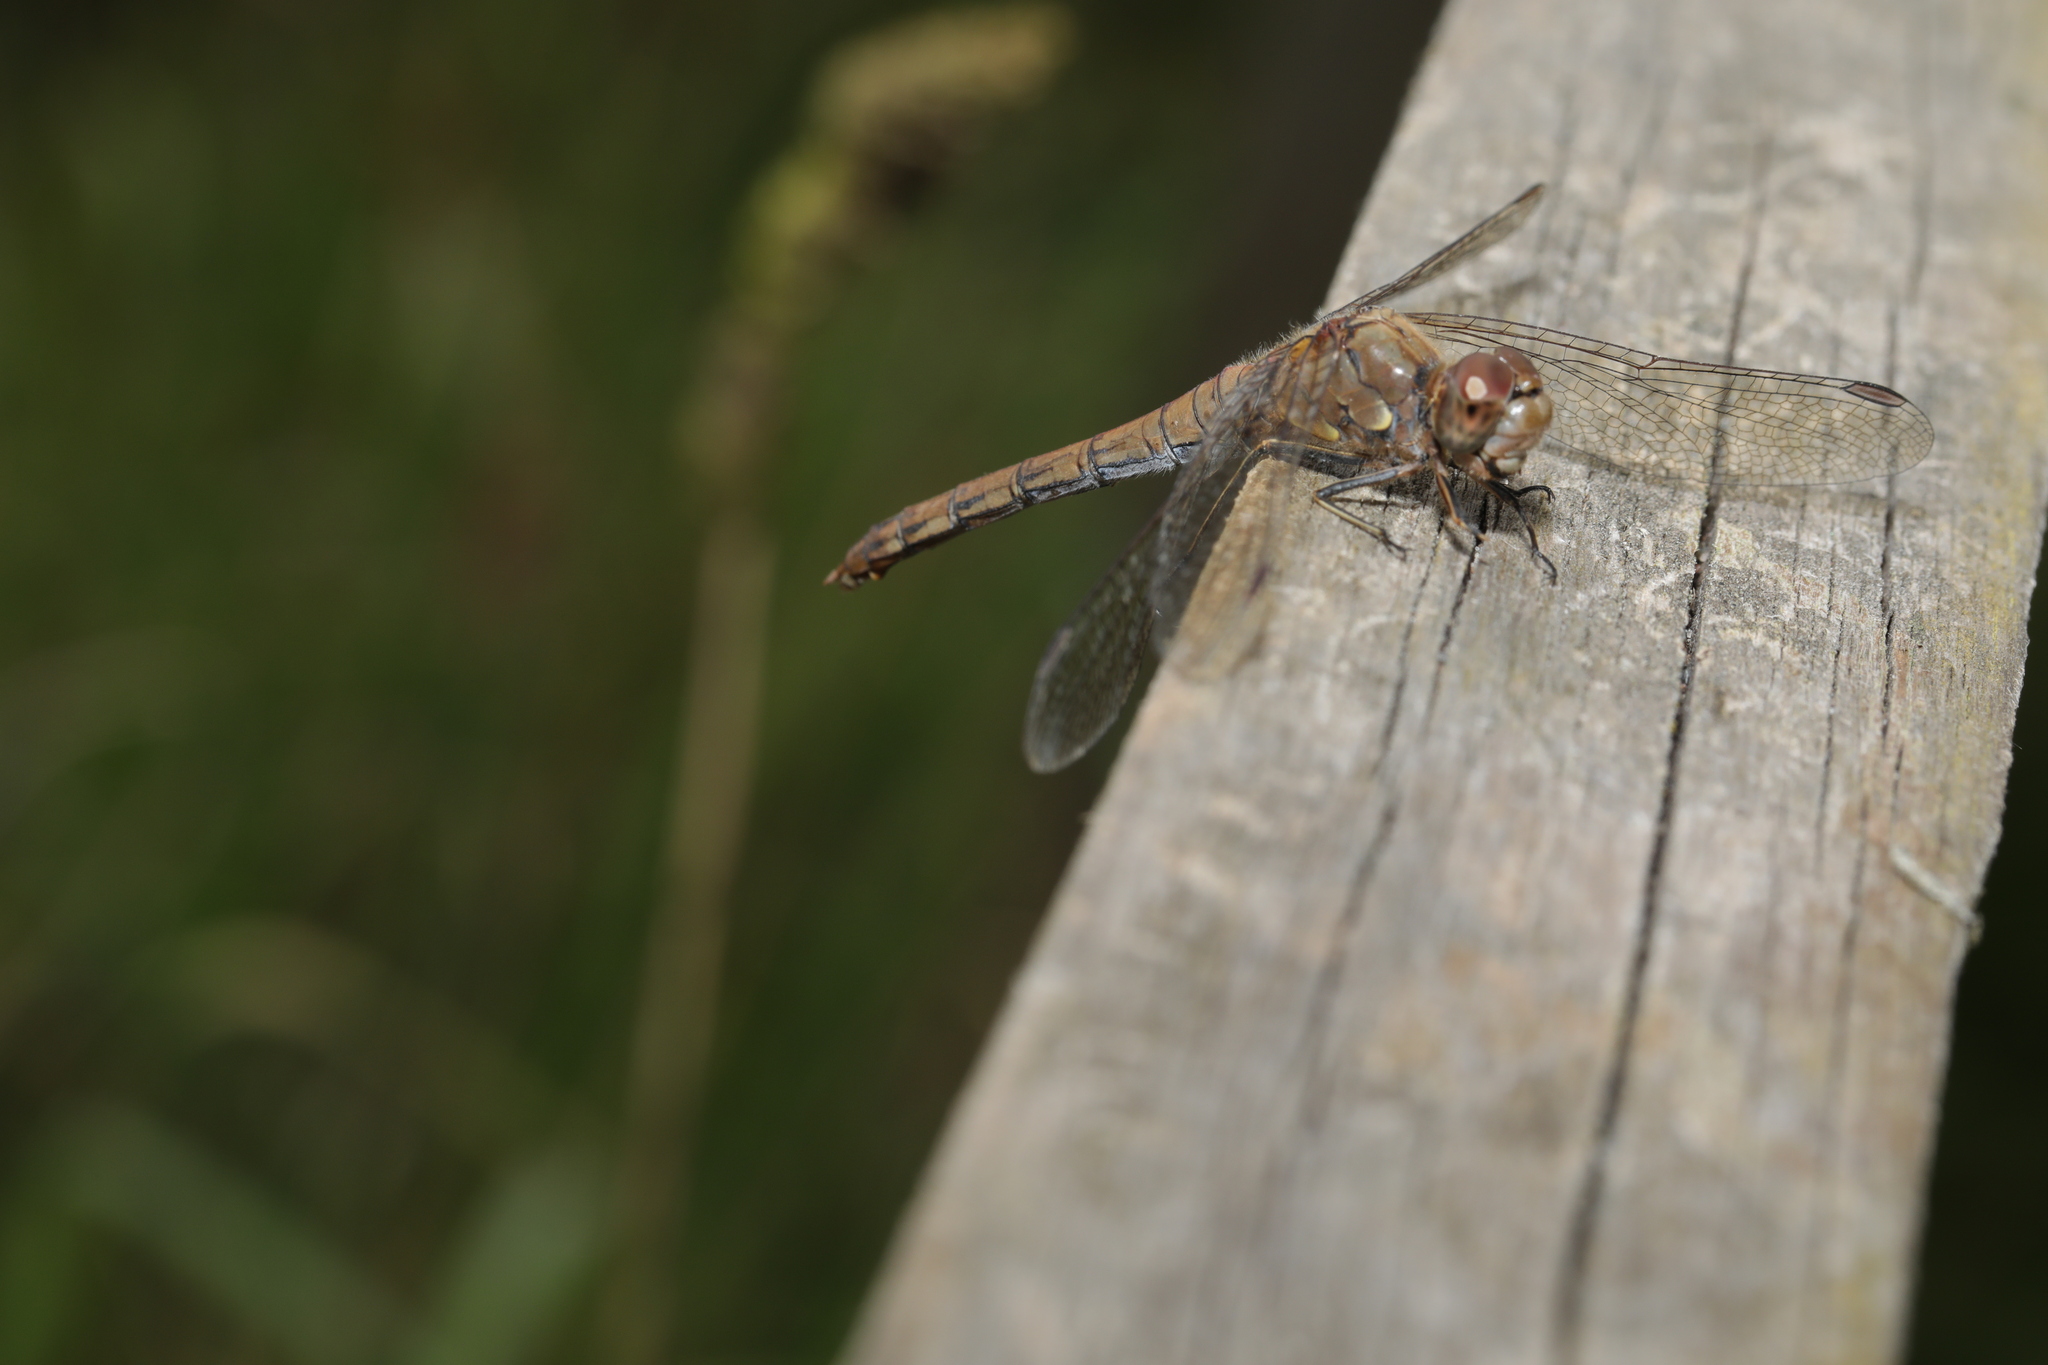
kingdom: Animalia
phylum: Arthropoda
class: Insecta
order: Odonata
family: Libellulidae
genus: Sympetrum
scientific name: Sympetrum striolatum
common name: Common darter
